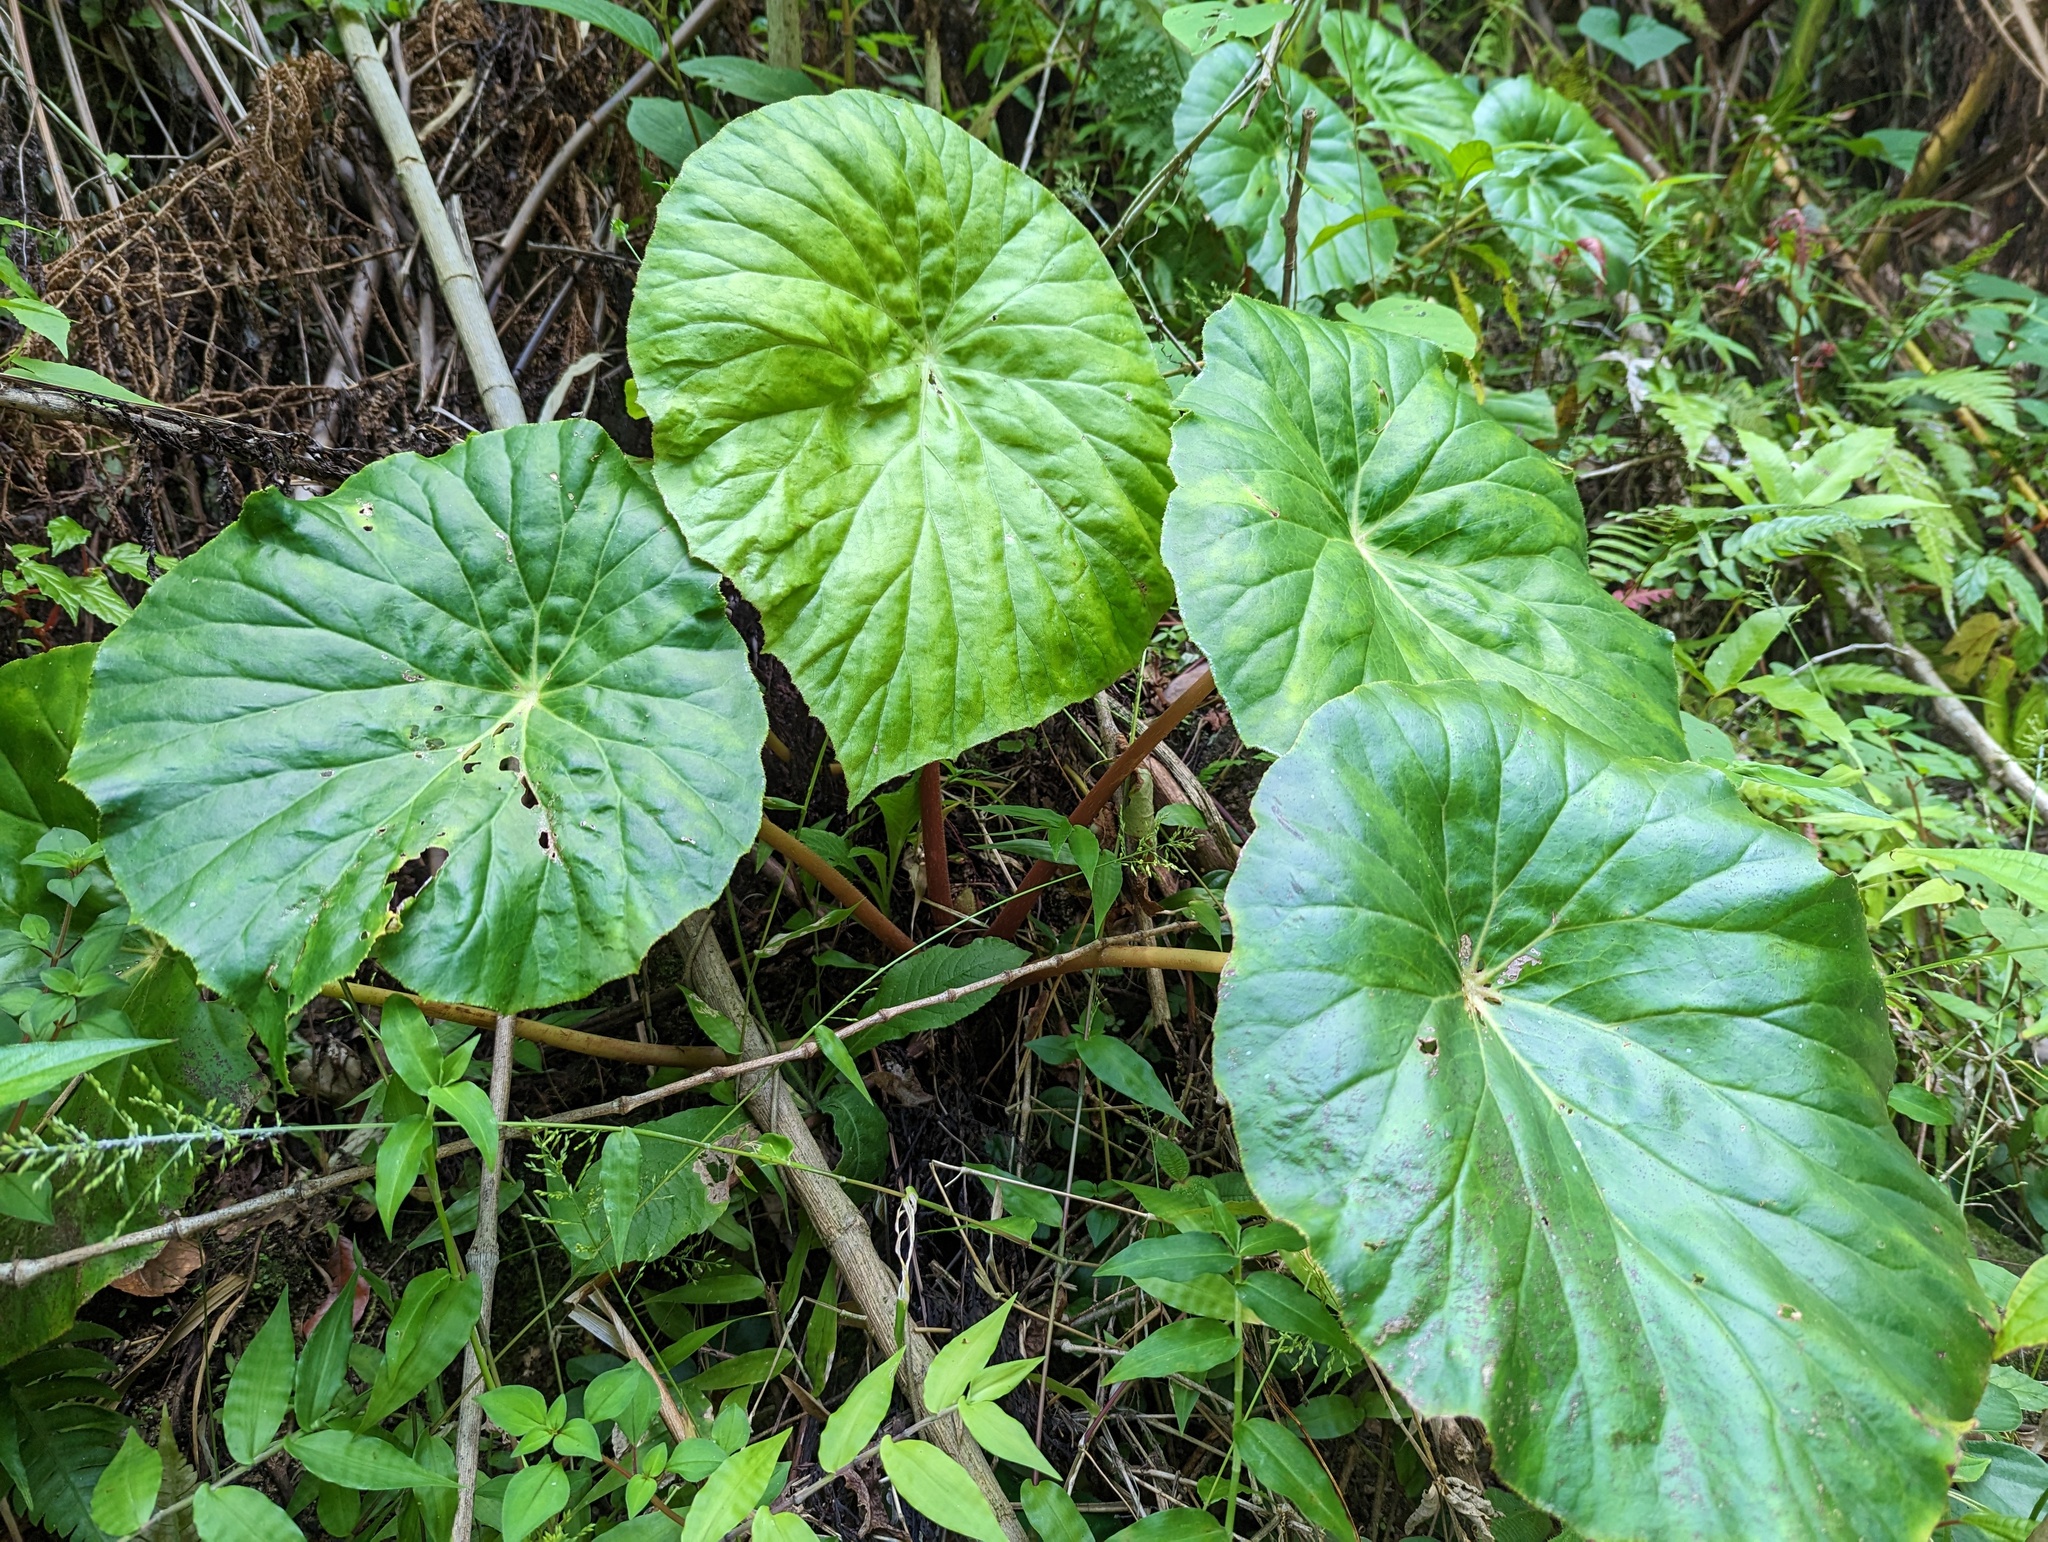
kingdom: Plantae
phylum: Tracheophyta
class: Magnoliopsida
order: Cucurbitales
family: Begoniaceae
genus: Begonia
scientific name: Begonia nelumbiifolia
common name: Lilypad begonia
